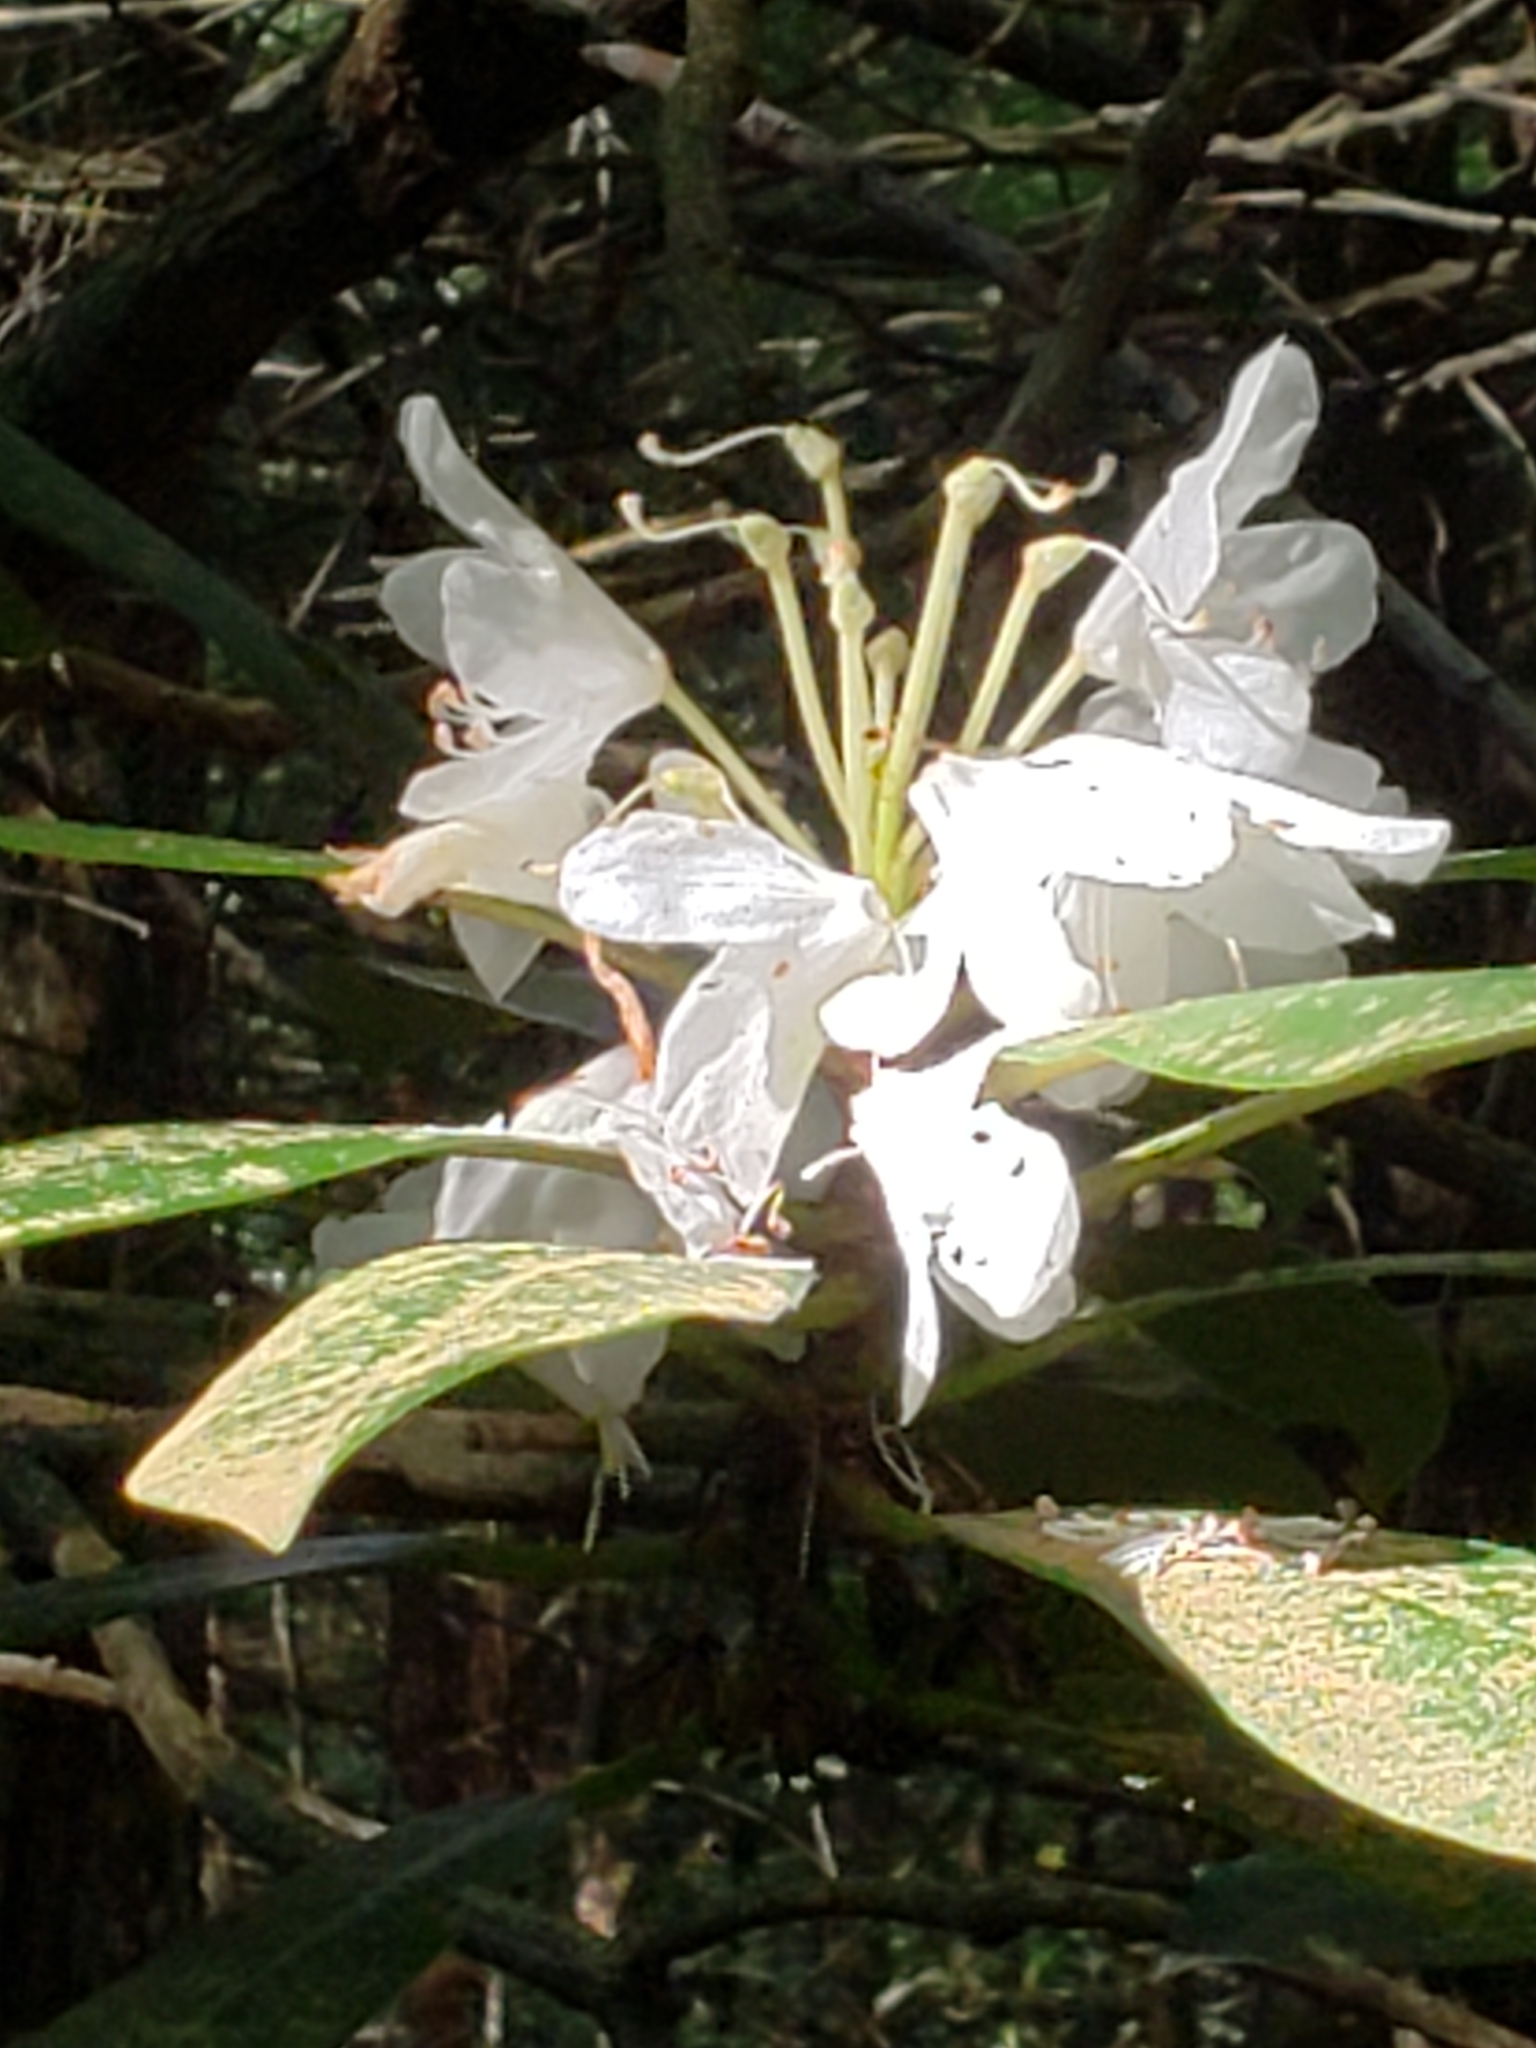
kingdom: Plantae
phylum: Tracheophyta
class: Magnoliopsida
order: Ericales
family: Ericaceae
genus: Rhododendron
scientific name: Rhododendron maximum
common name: Great rhododendron
